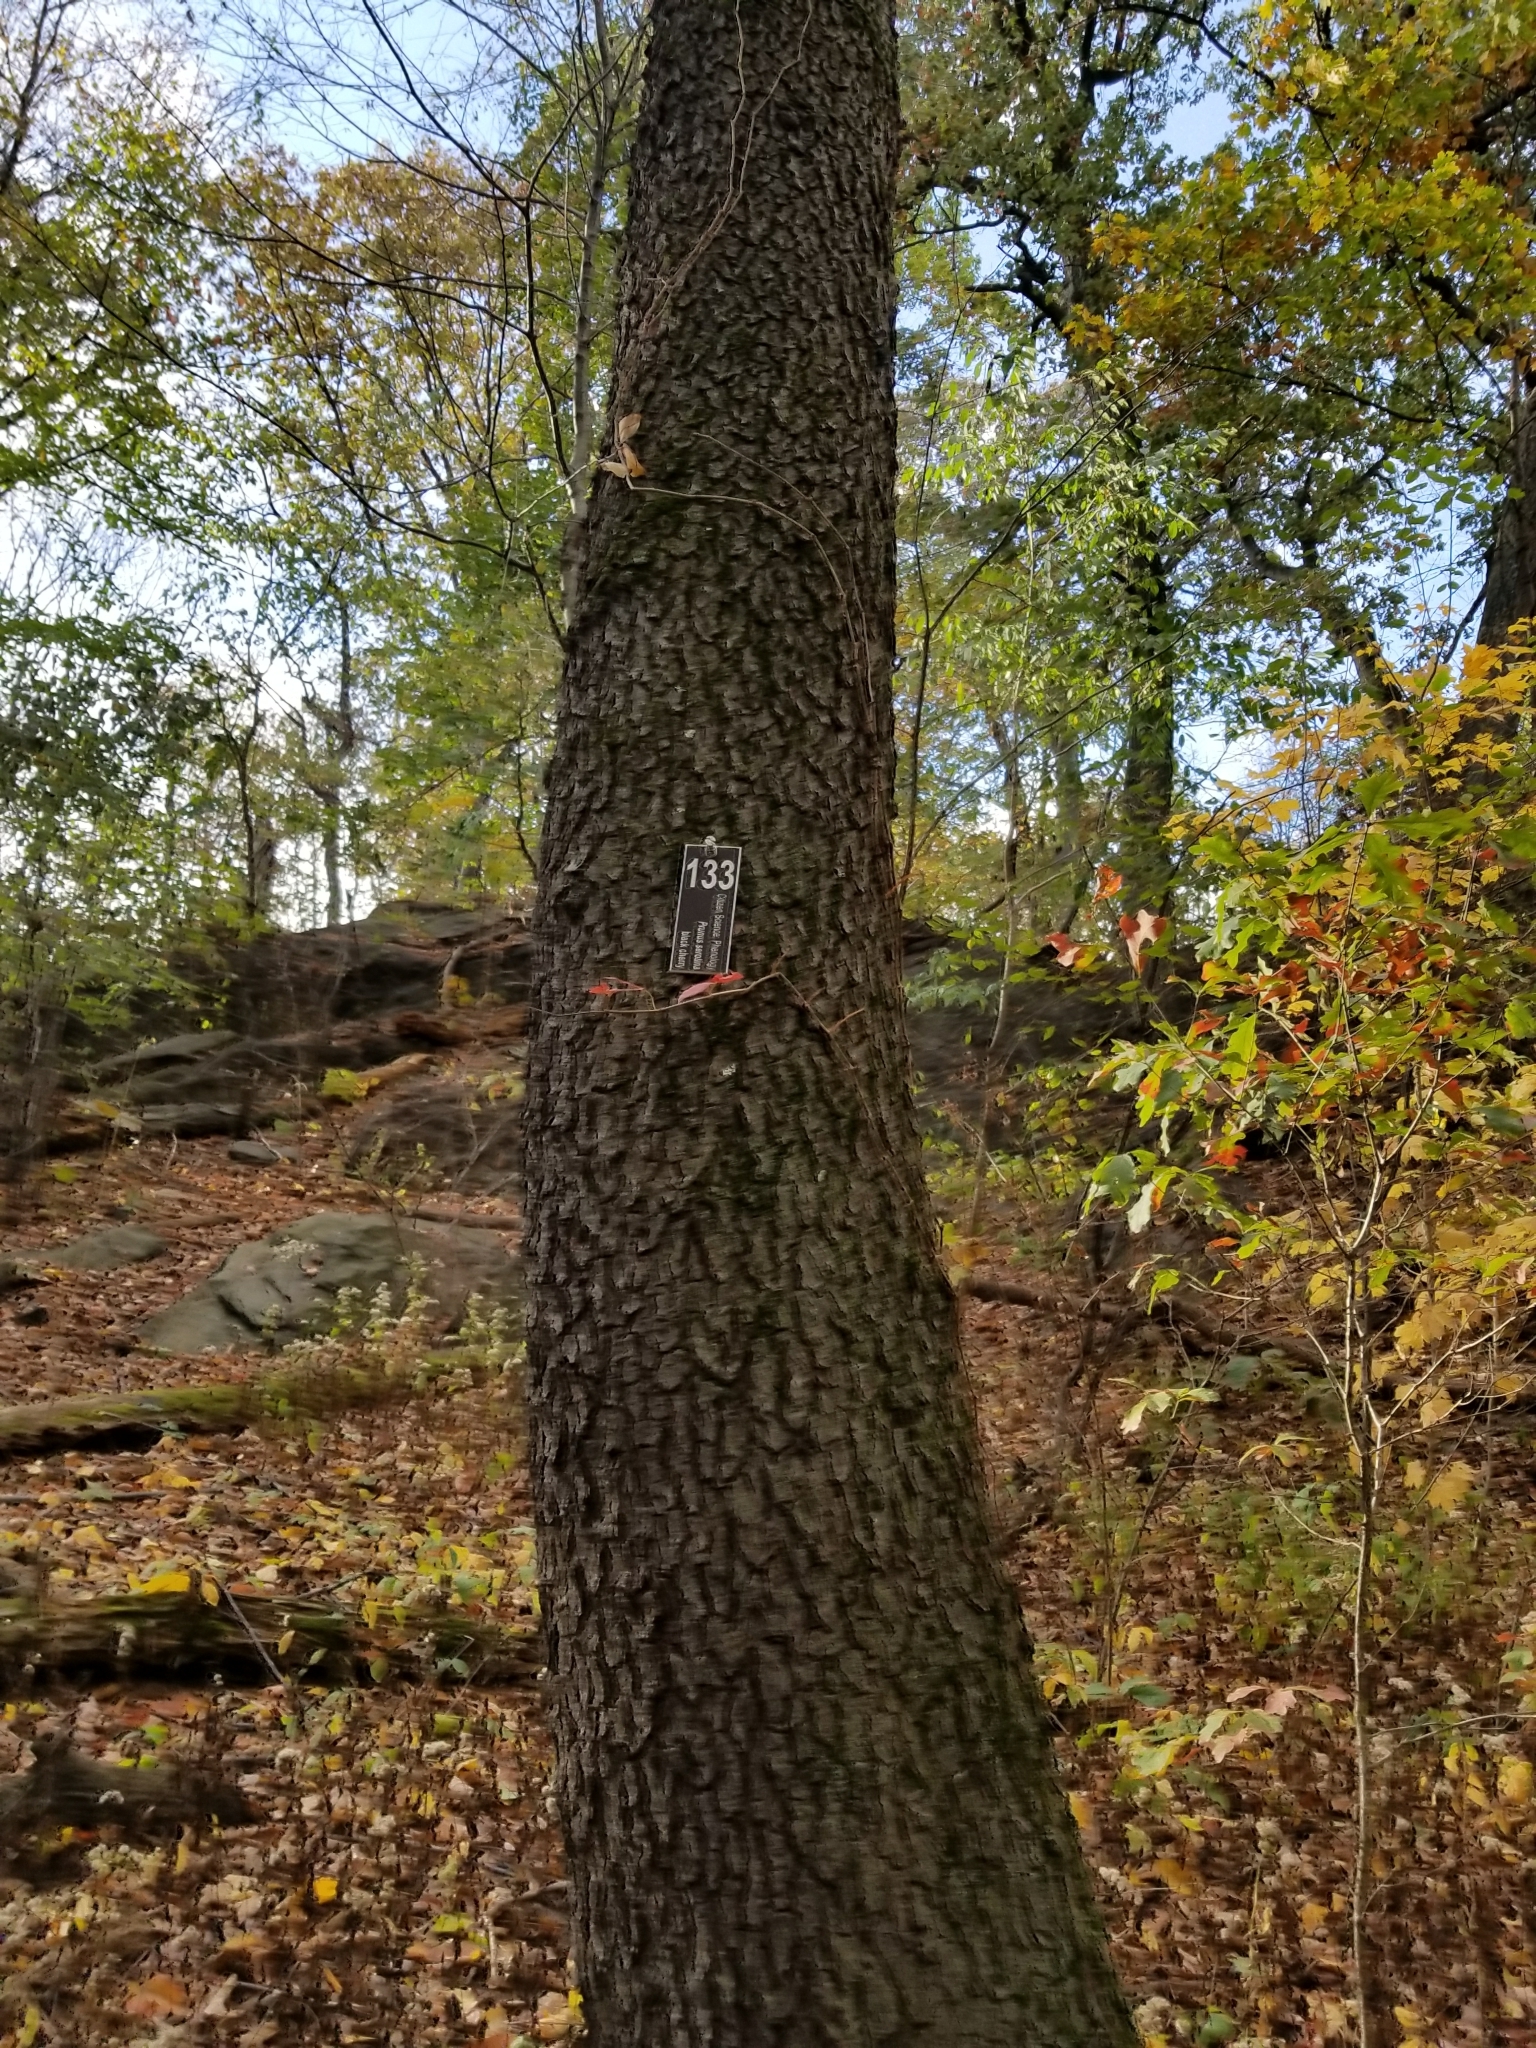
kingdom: Plantae
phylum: Tracheophyta
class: Magnoliopsida
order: Rosales
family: Rosaceae
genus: Prunus
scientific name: Prunus serotina
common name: Black cherry
